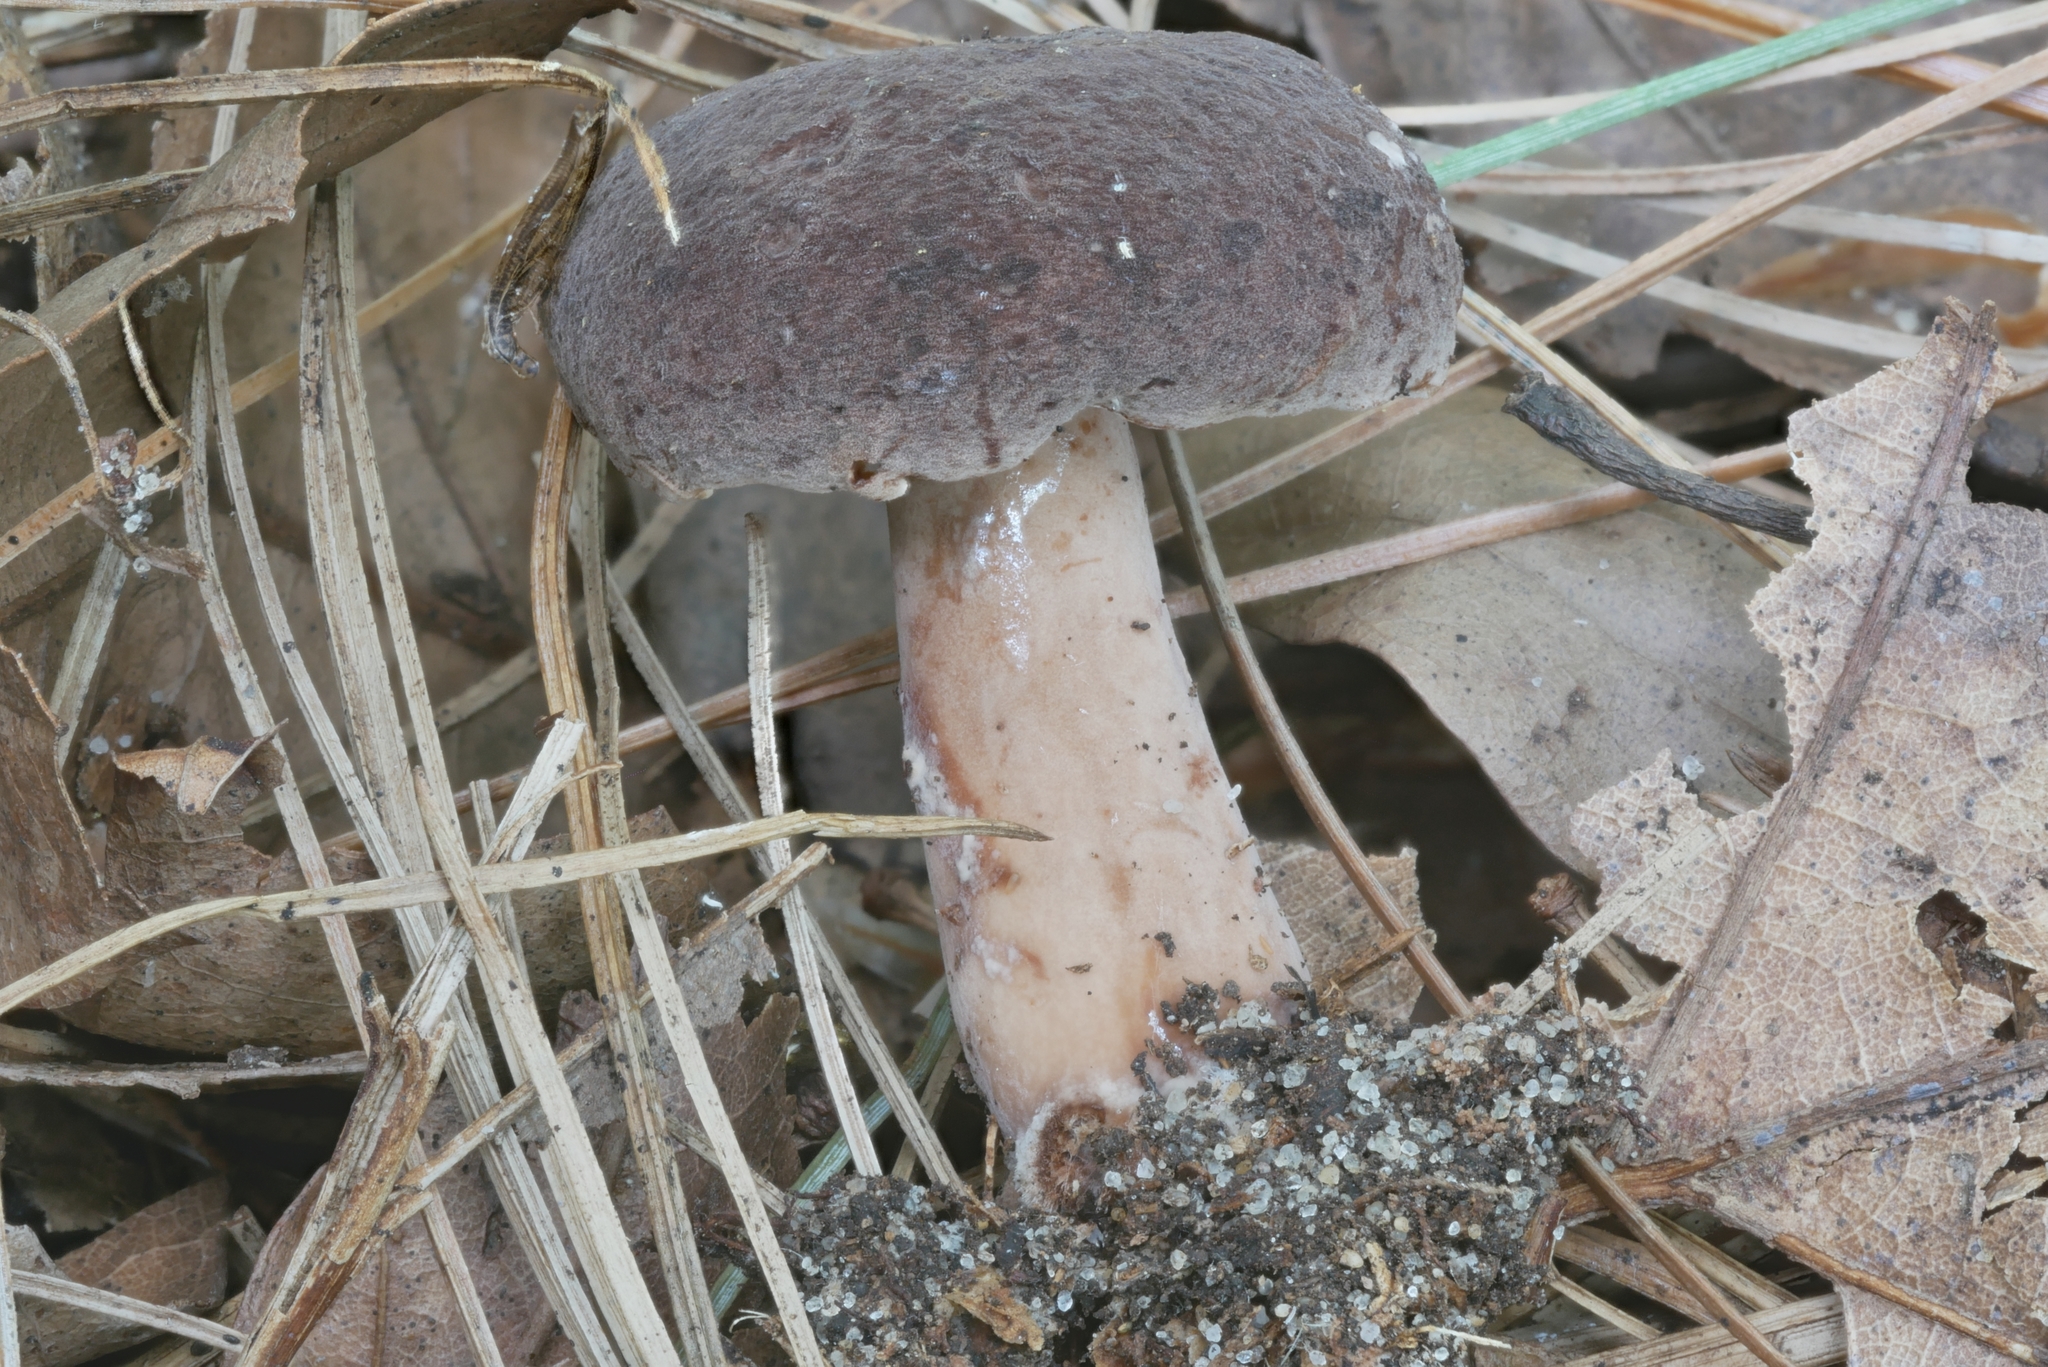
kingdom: Fungi
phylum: Basidiomycota
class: Agaricomycetes
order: Russulales
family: Russulaceae
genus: Lactarius
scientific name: Lactarius mutabilis
